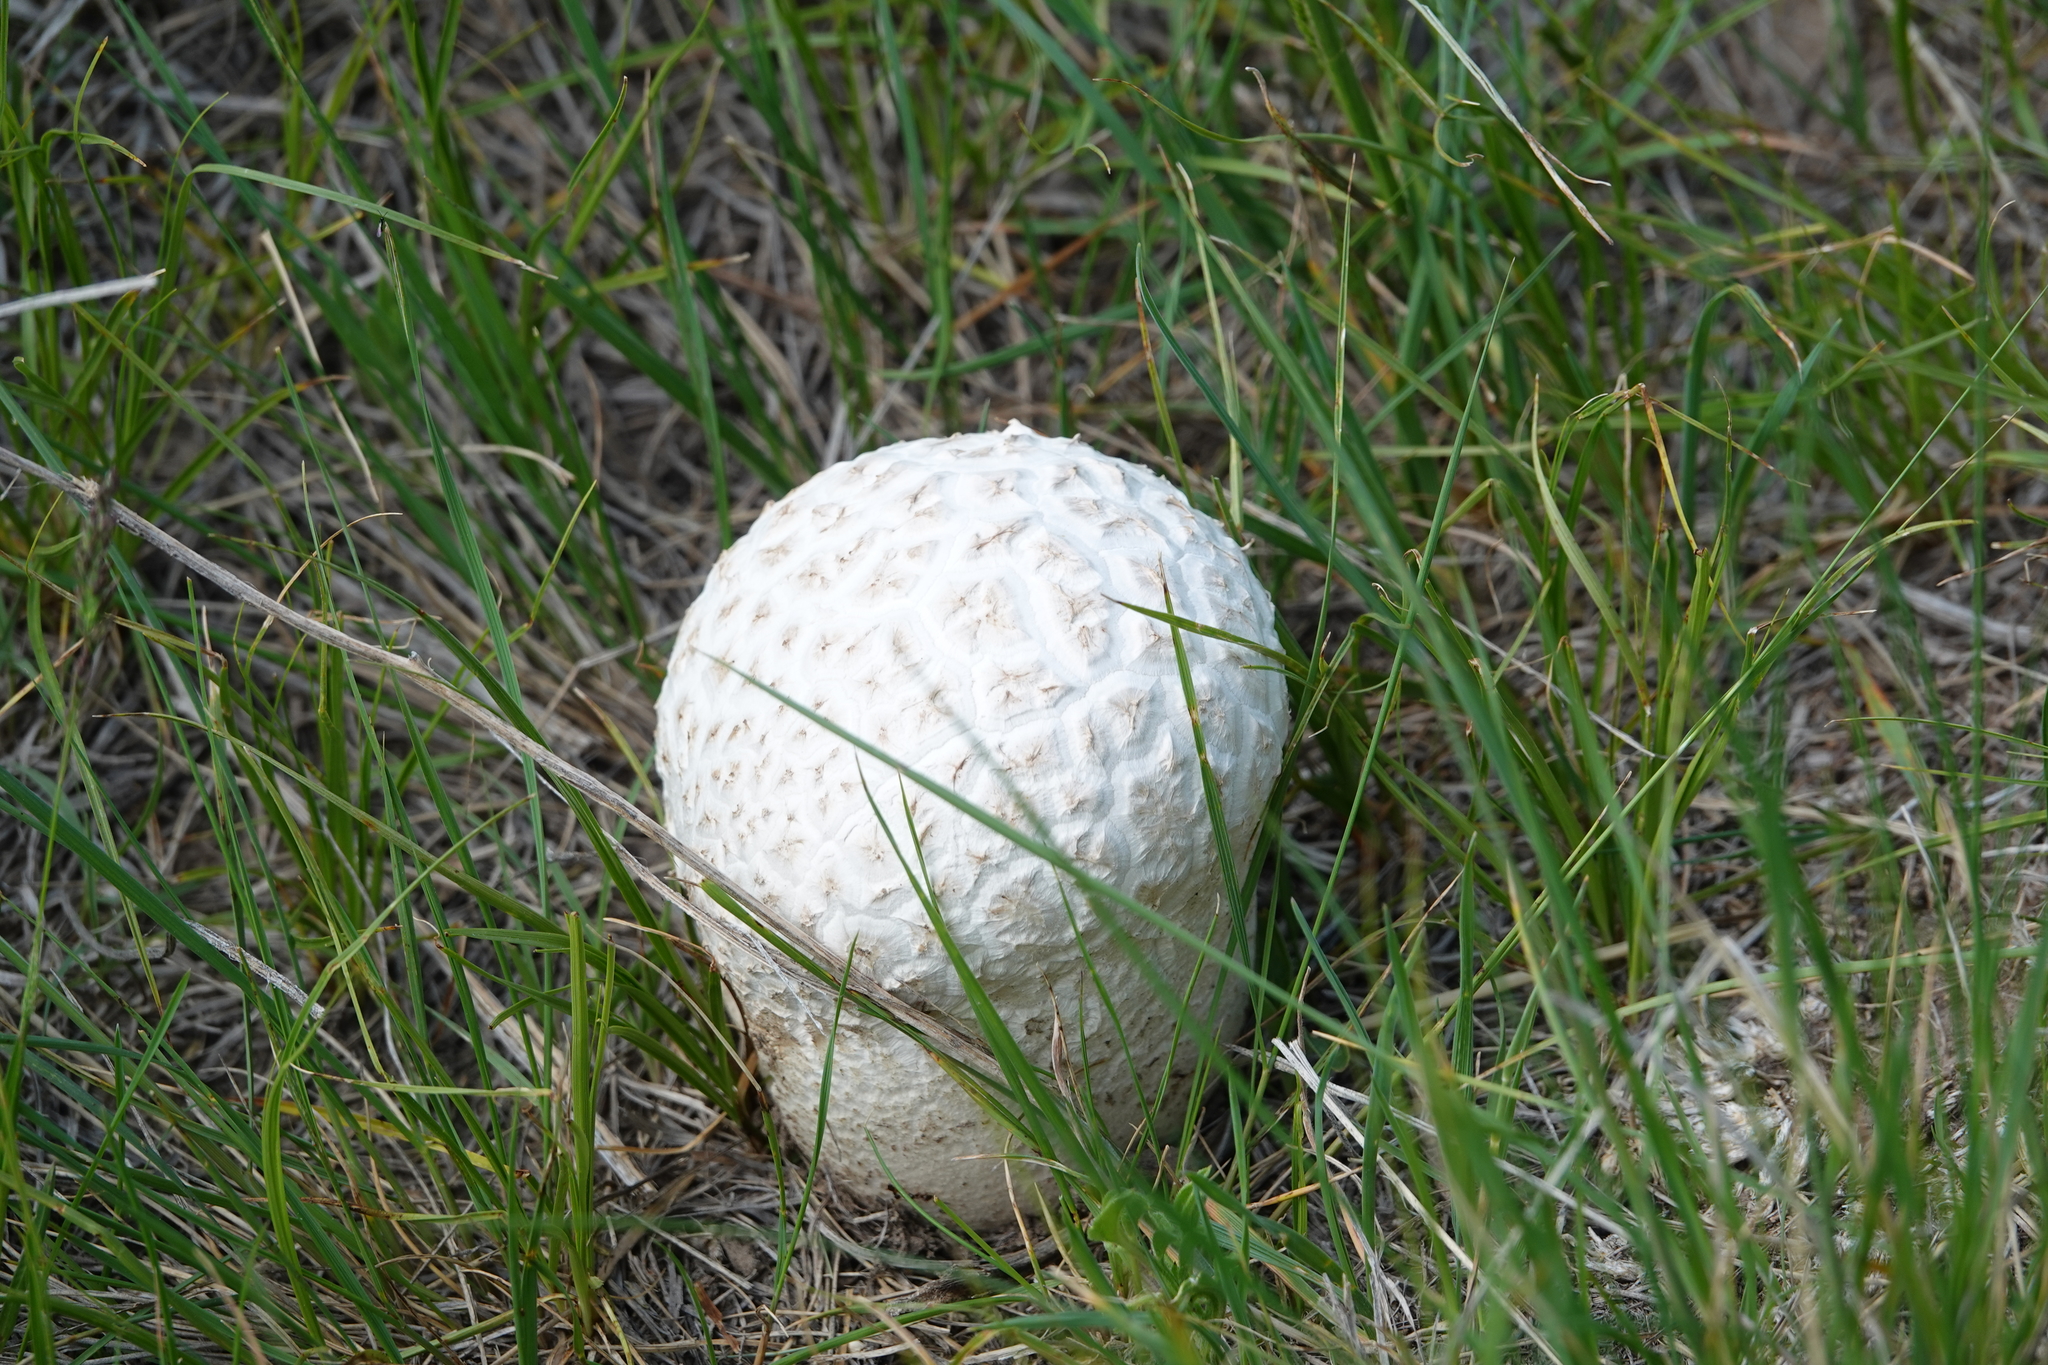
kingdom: Fungi
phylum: Basidiomycota
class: Agaricomycetes
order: Agaricales
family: Lycoperdaceae
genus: Calvatia
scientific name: Calvatia booniana
